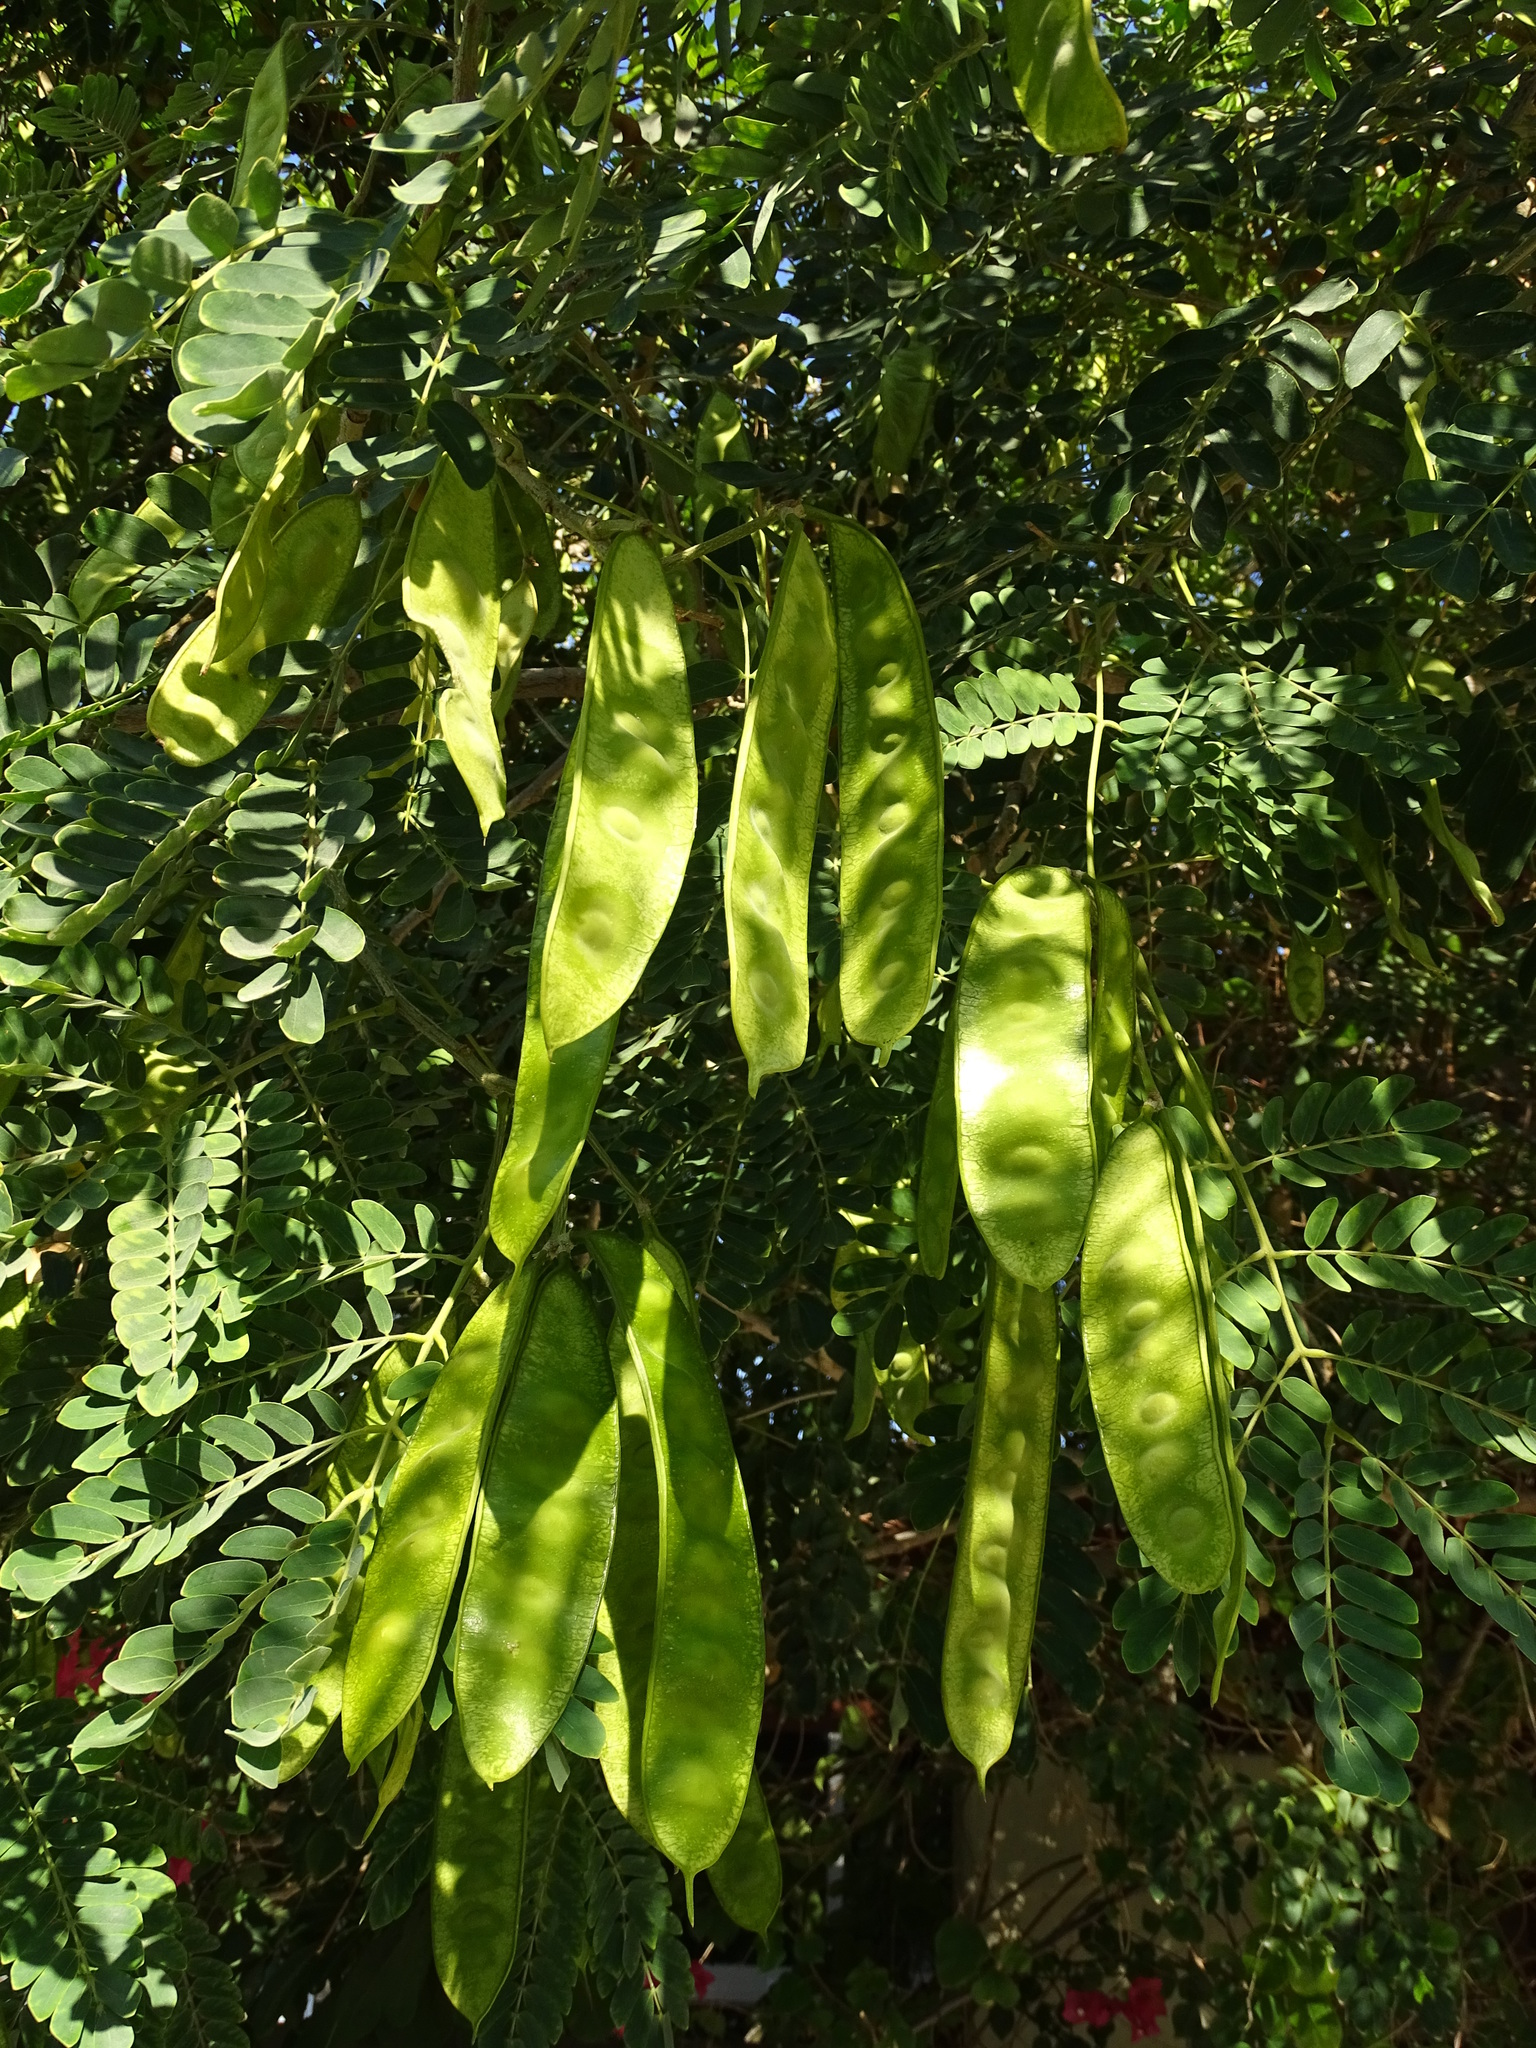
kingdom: Plantae
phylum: Tracheophyta
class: Magnoliopsida
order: Fabales
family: Fabaceae
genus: Albizia
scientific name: Albizia lebbeck
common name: Woman's tongue
